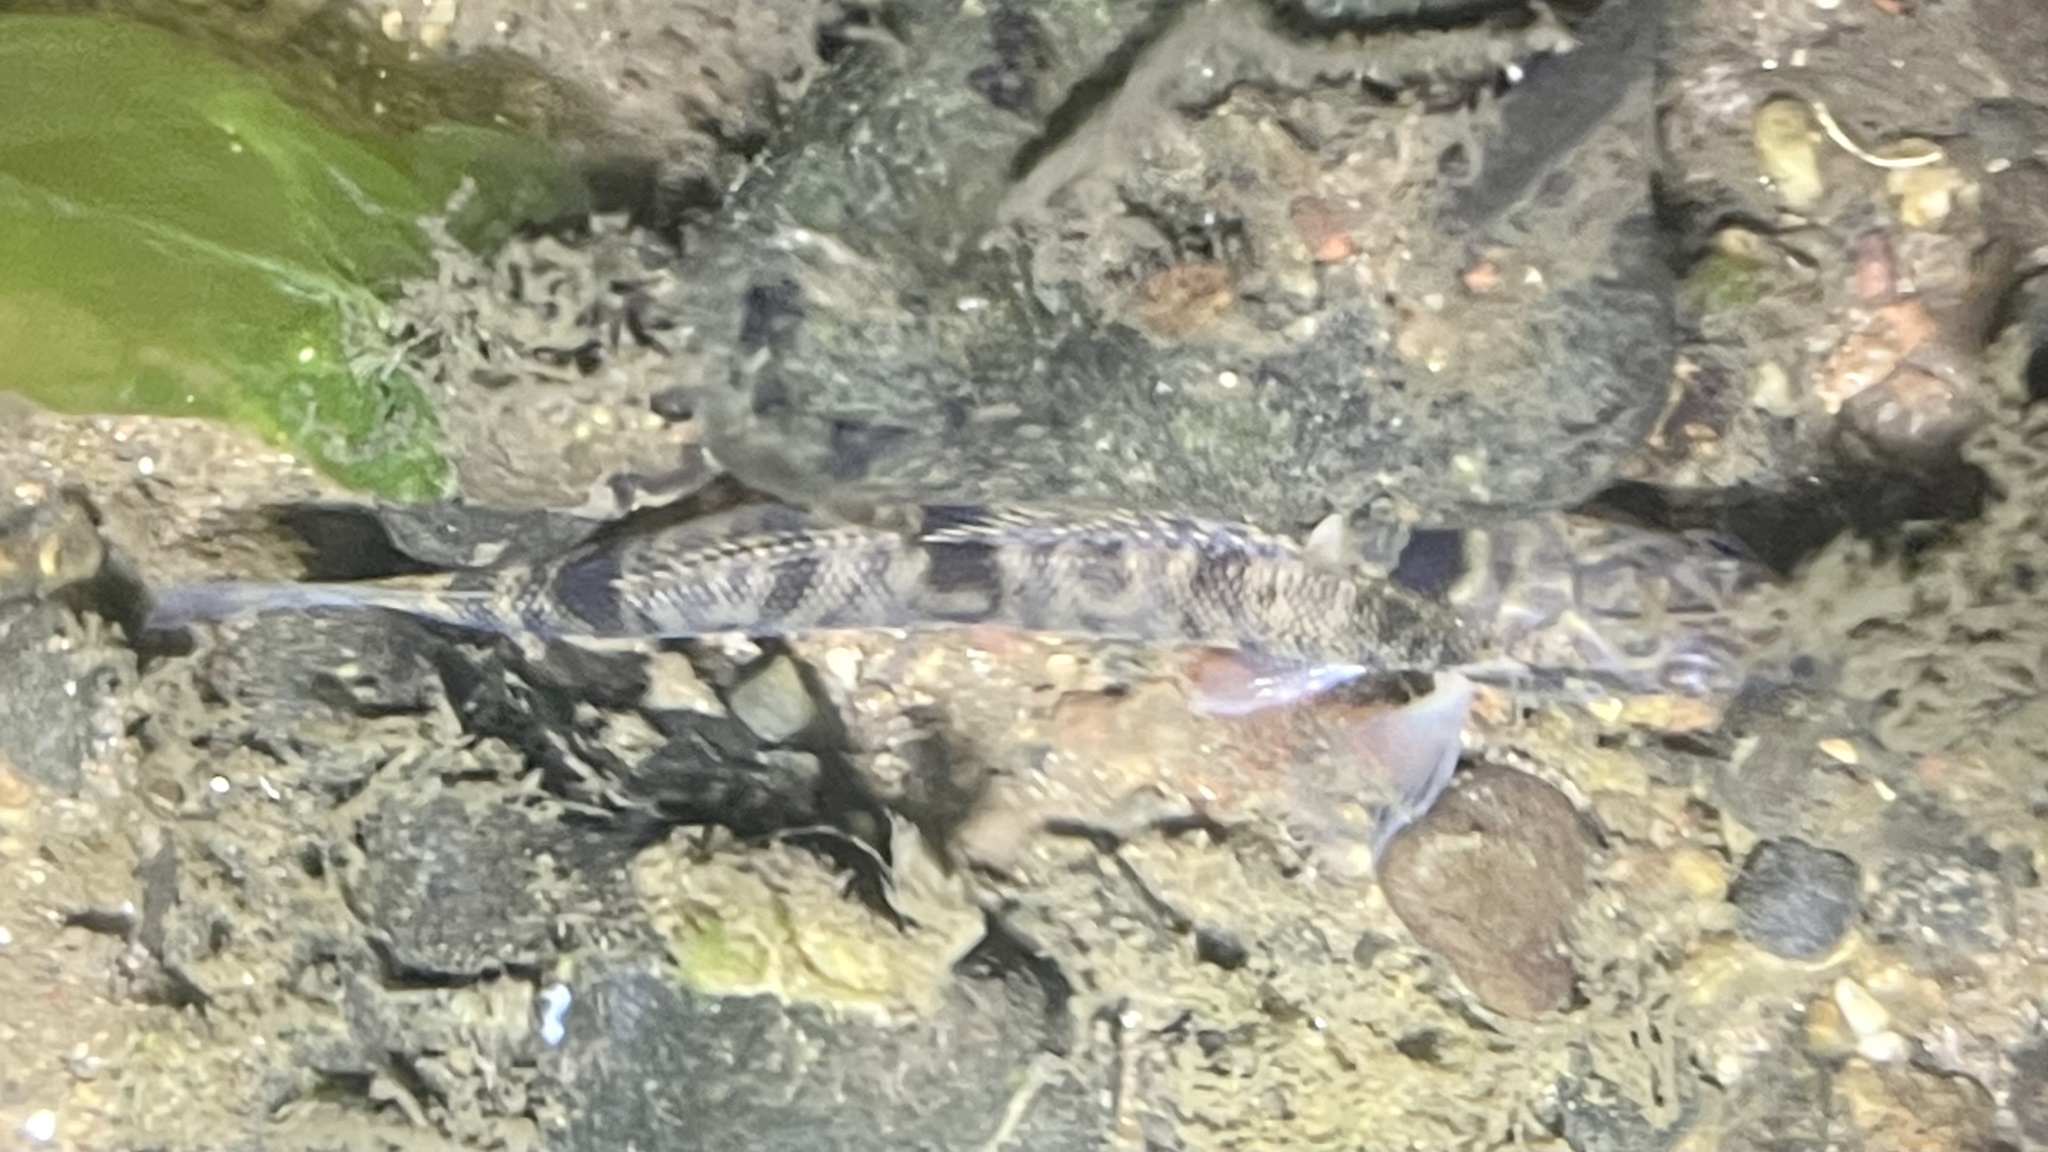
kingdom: Animalia
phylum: Chordata
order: Perciformes
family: Percidae
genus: Percina
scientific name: Percina caprodes
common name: Logperch
